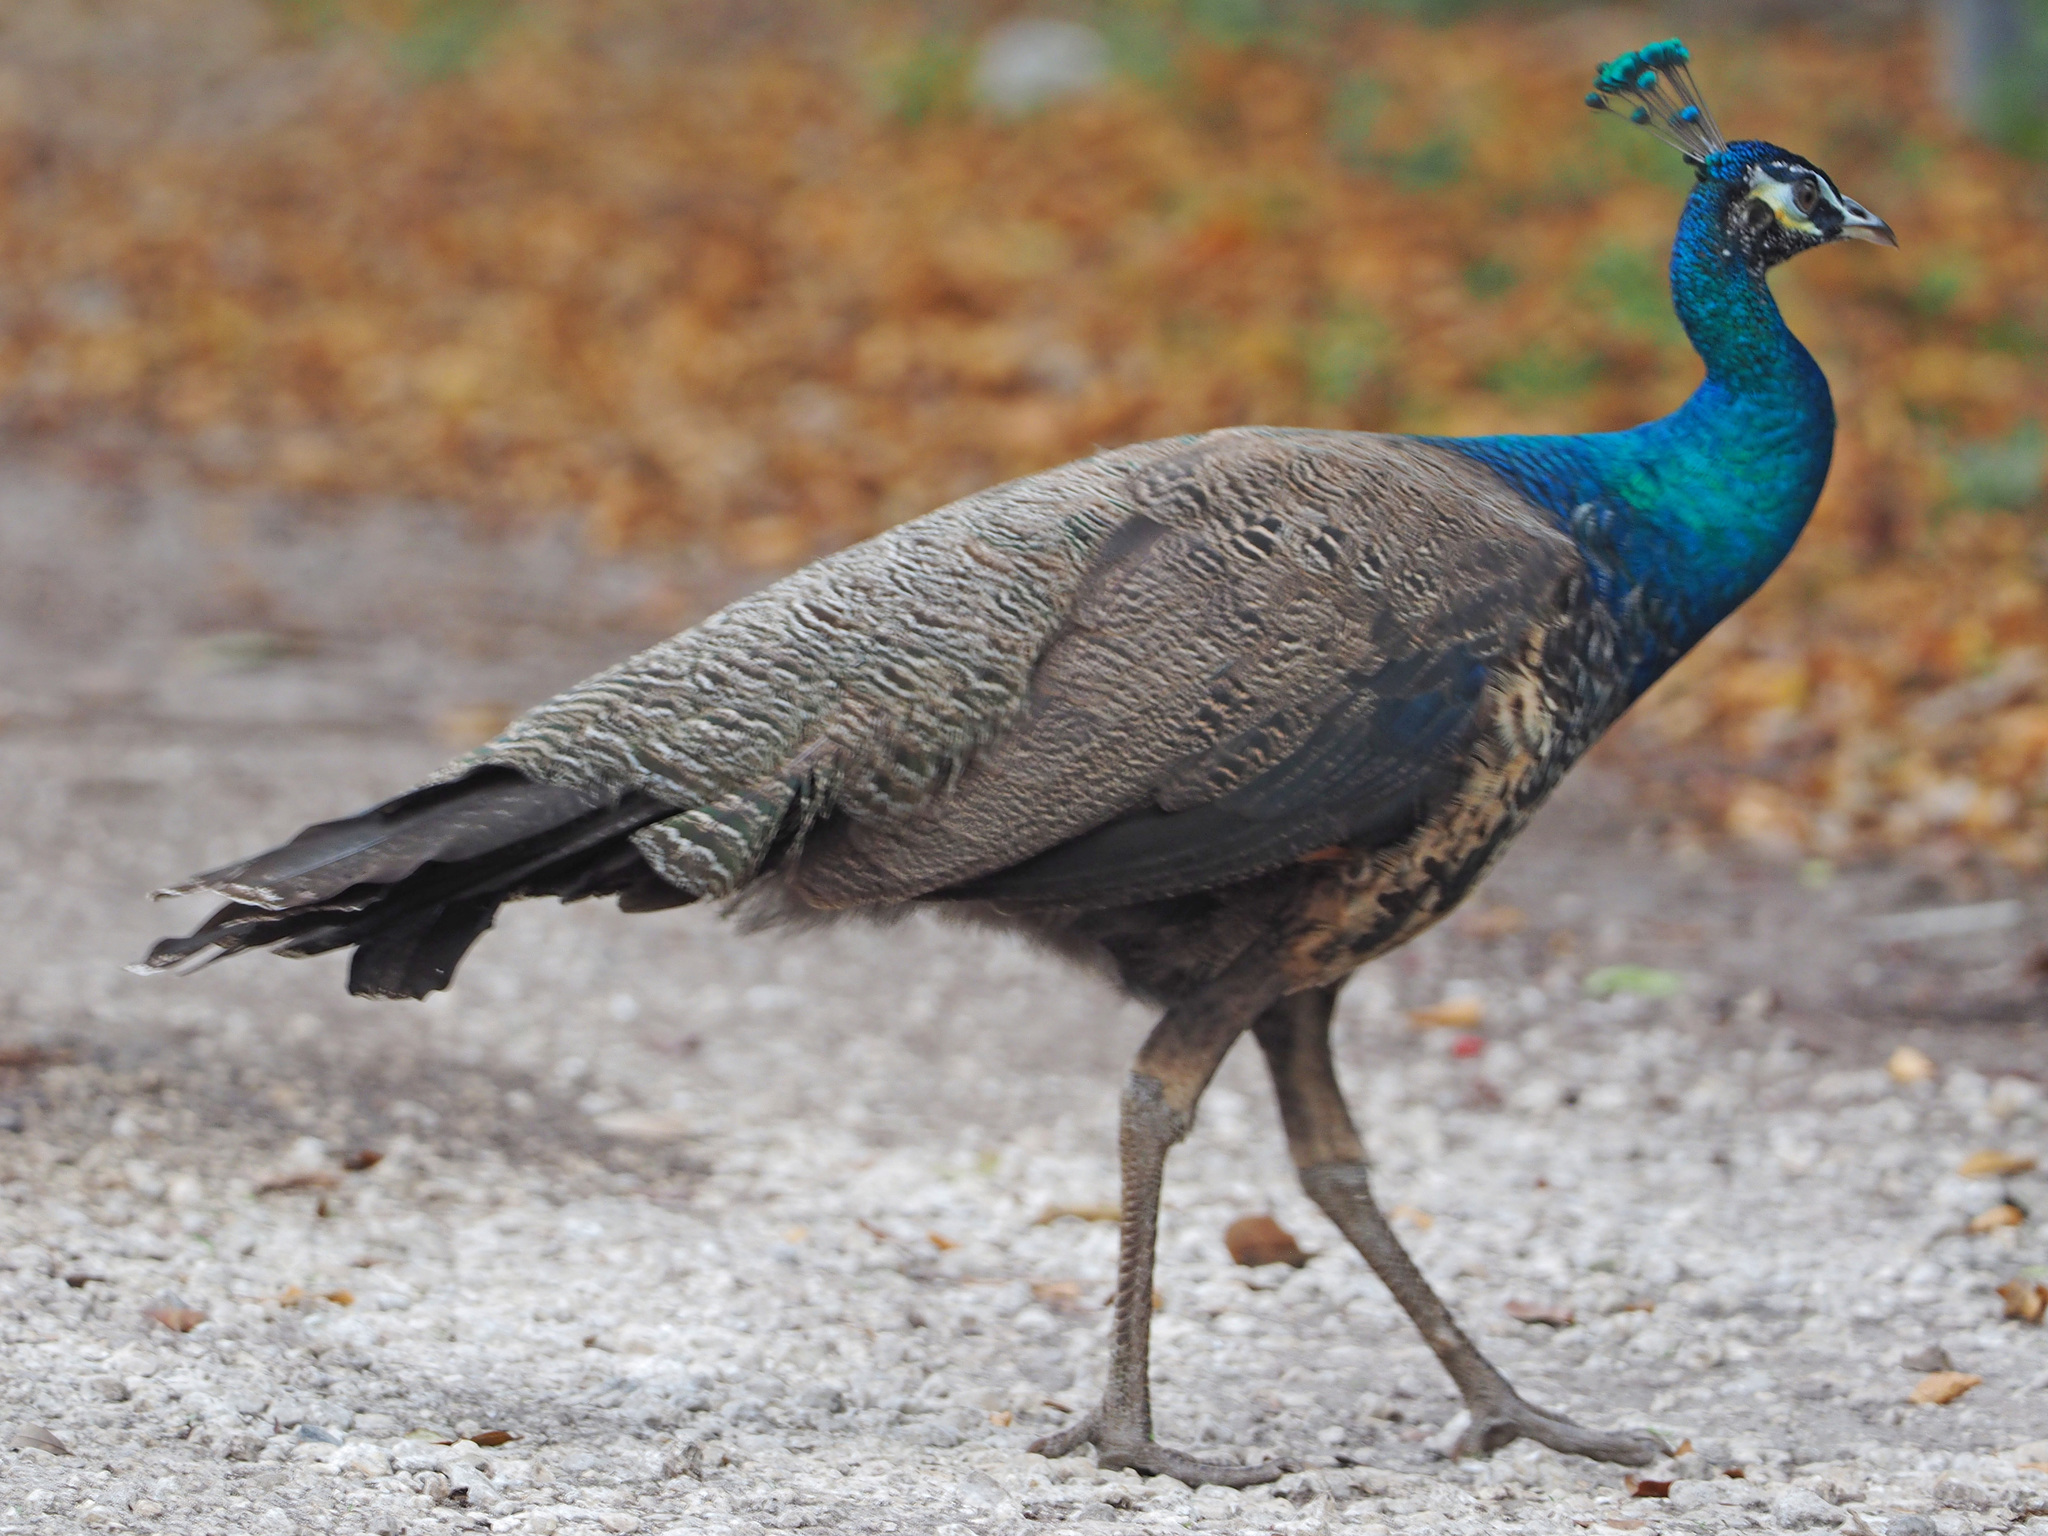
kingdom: Animalia
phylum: Chordata
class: Aves
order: Galliformes
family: Phasianidae
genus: Pavo
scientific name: Pavo
